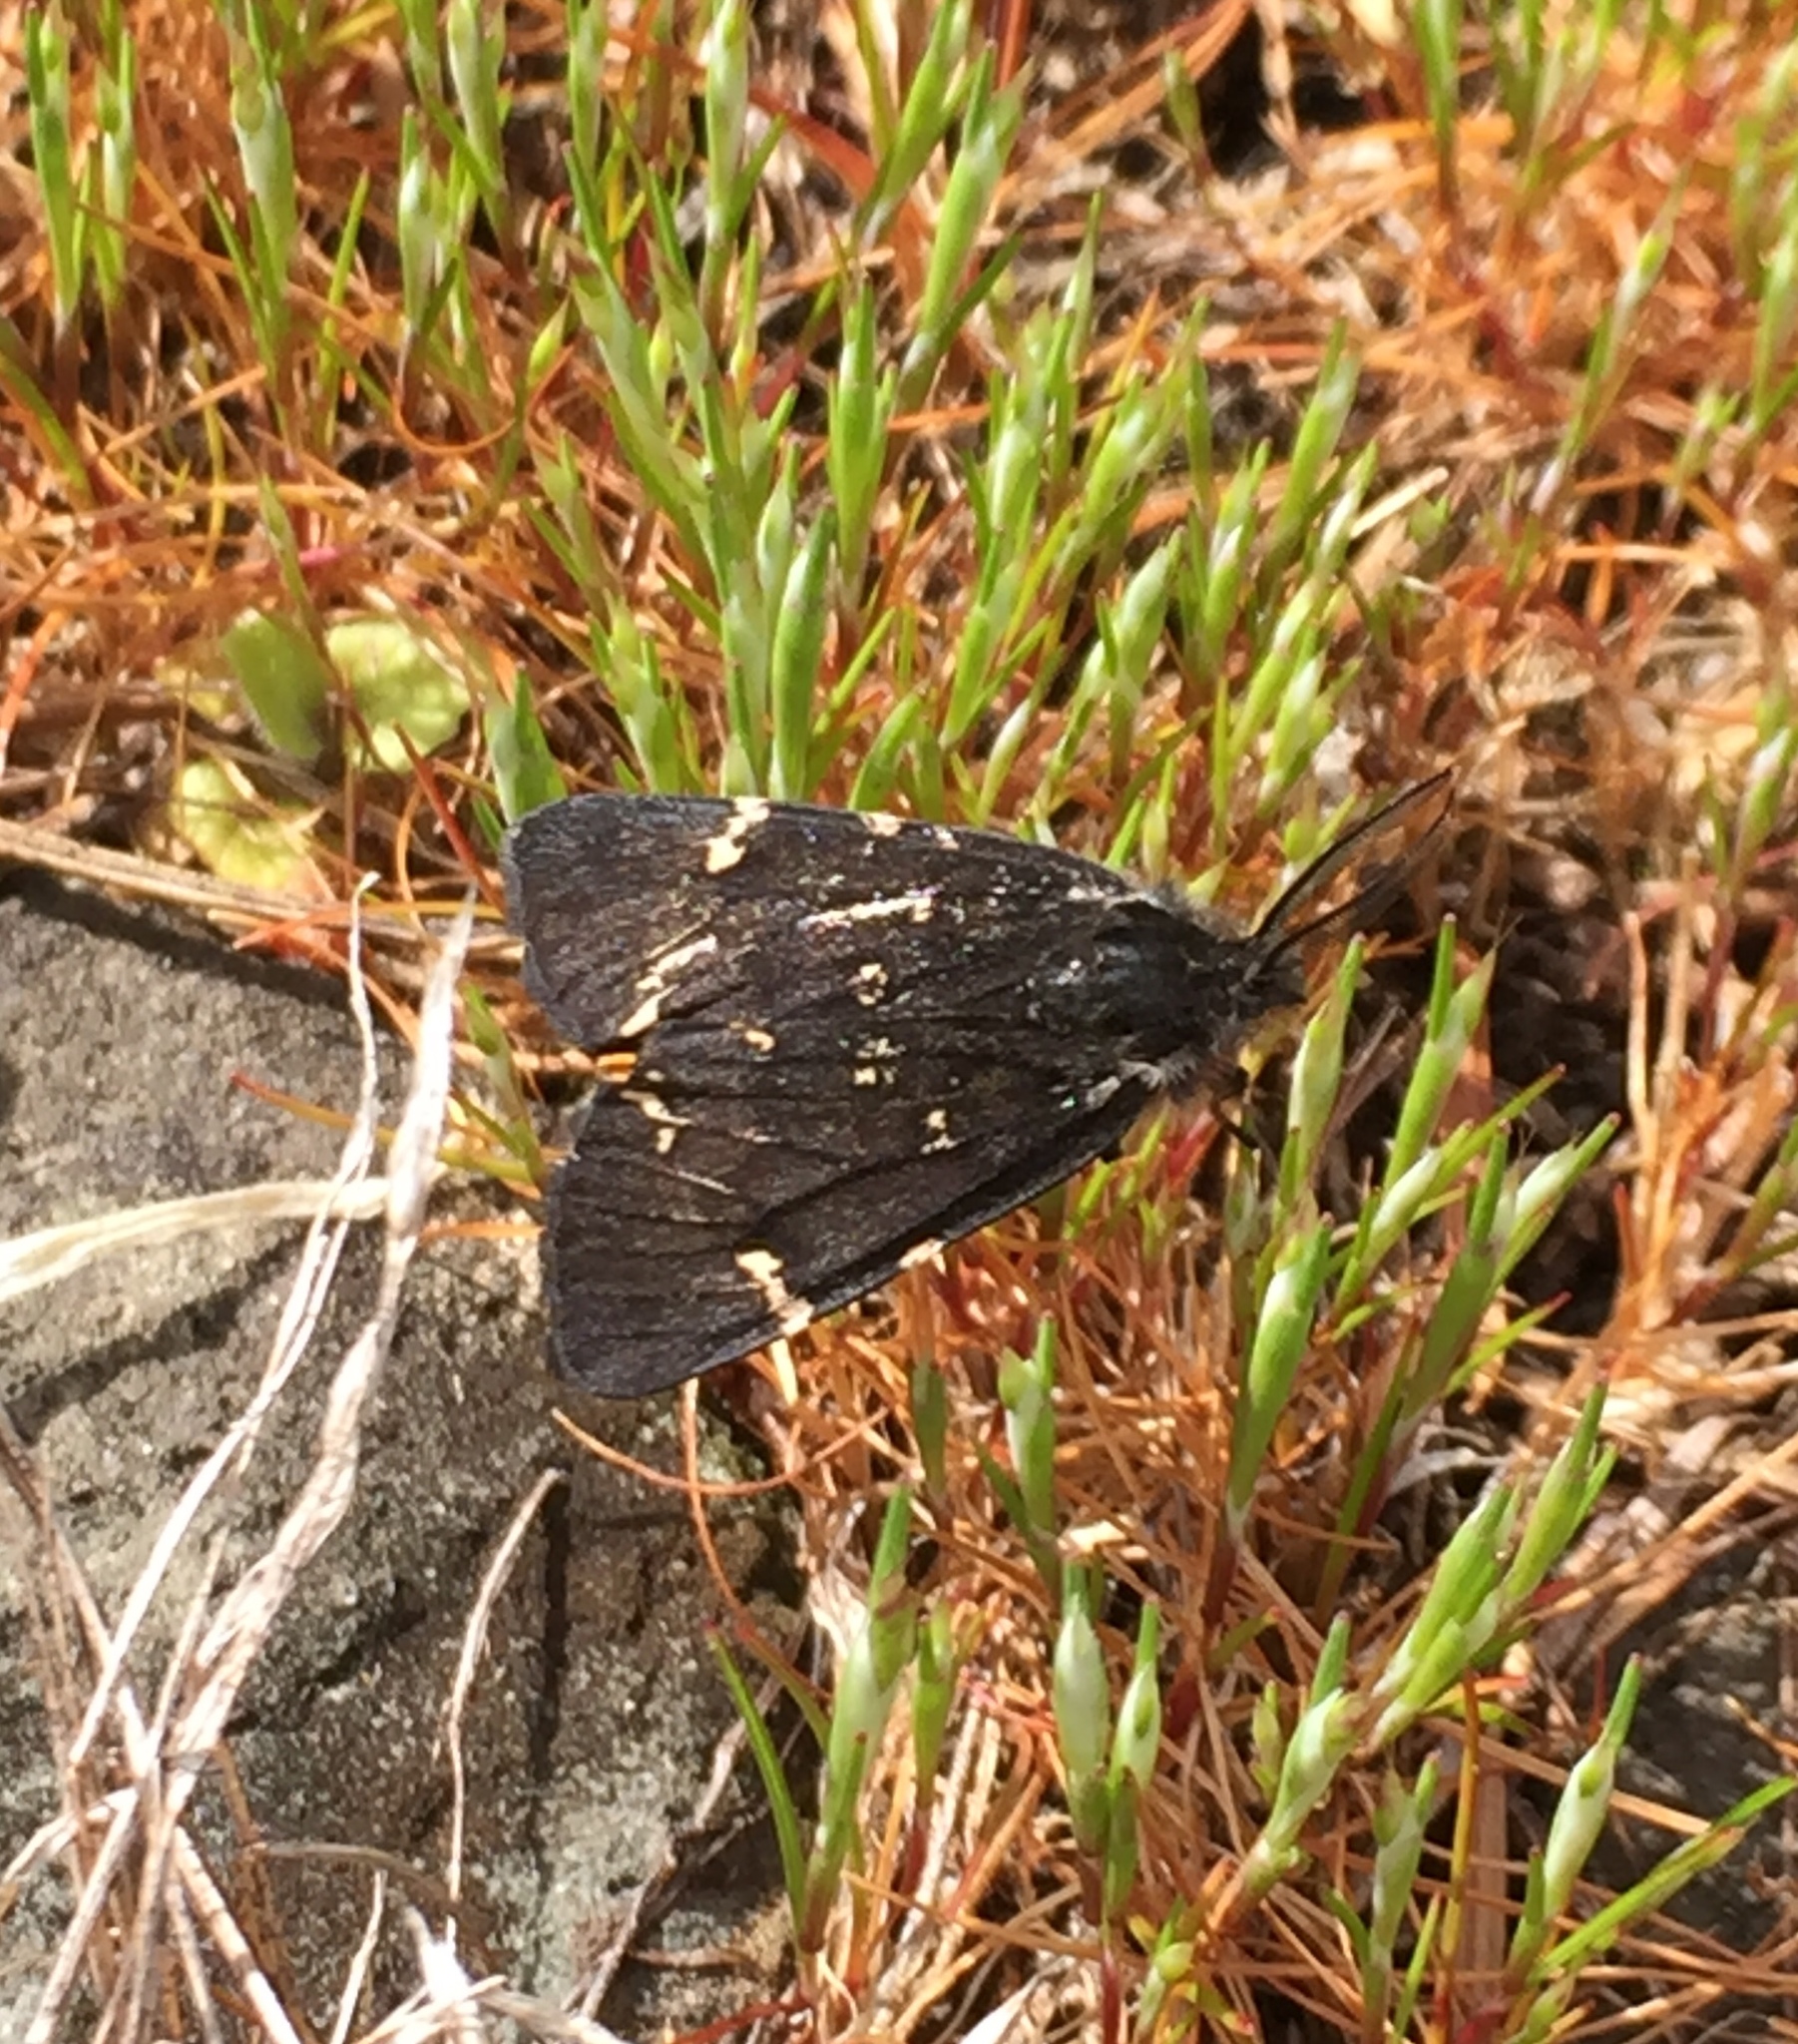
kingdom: Animalia
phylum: Arthropoda
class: Insecta
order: Lepidoptera
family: Erebidae
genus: Leptarctia
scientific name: Leptarctia californiae
